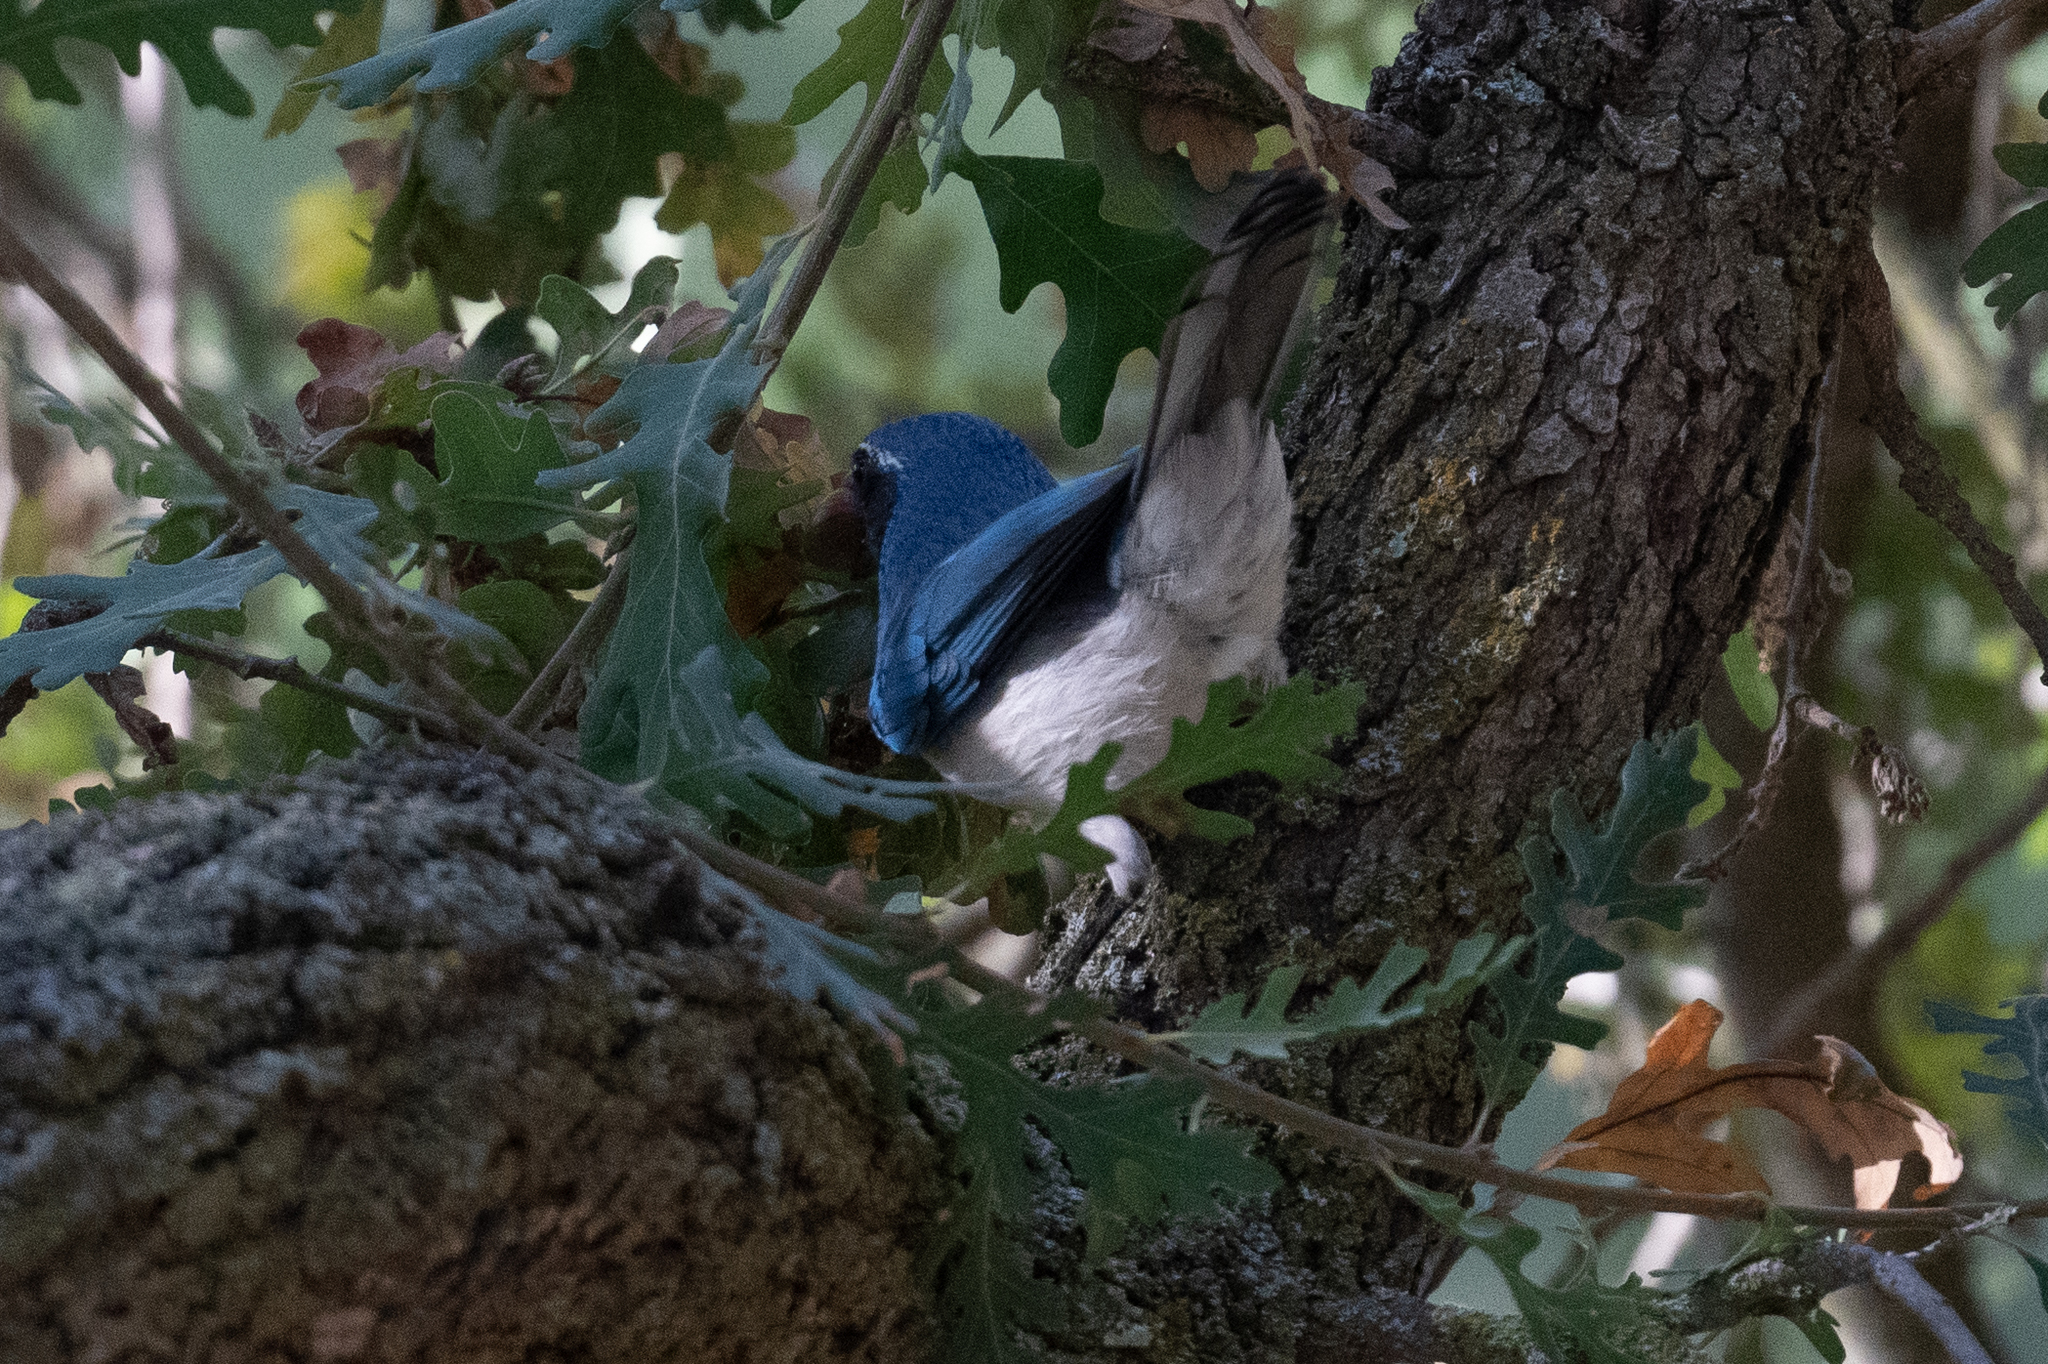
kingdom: Animalia
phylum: Chordata
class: Aves
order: Passeriformes
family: Corvidae
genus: Aphelocoma
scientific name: Aphelocoma californica
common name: California scrub-jay
